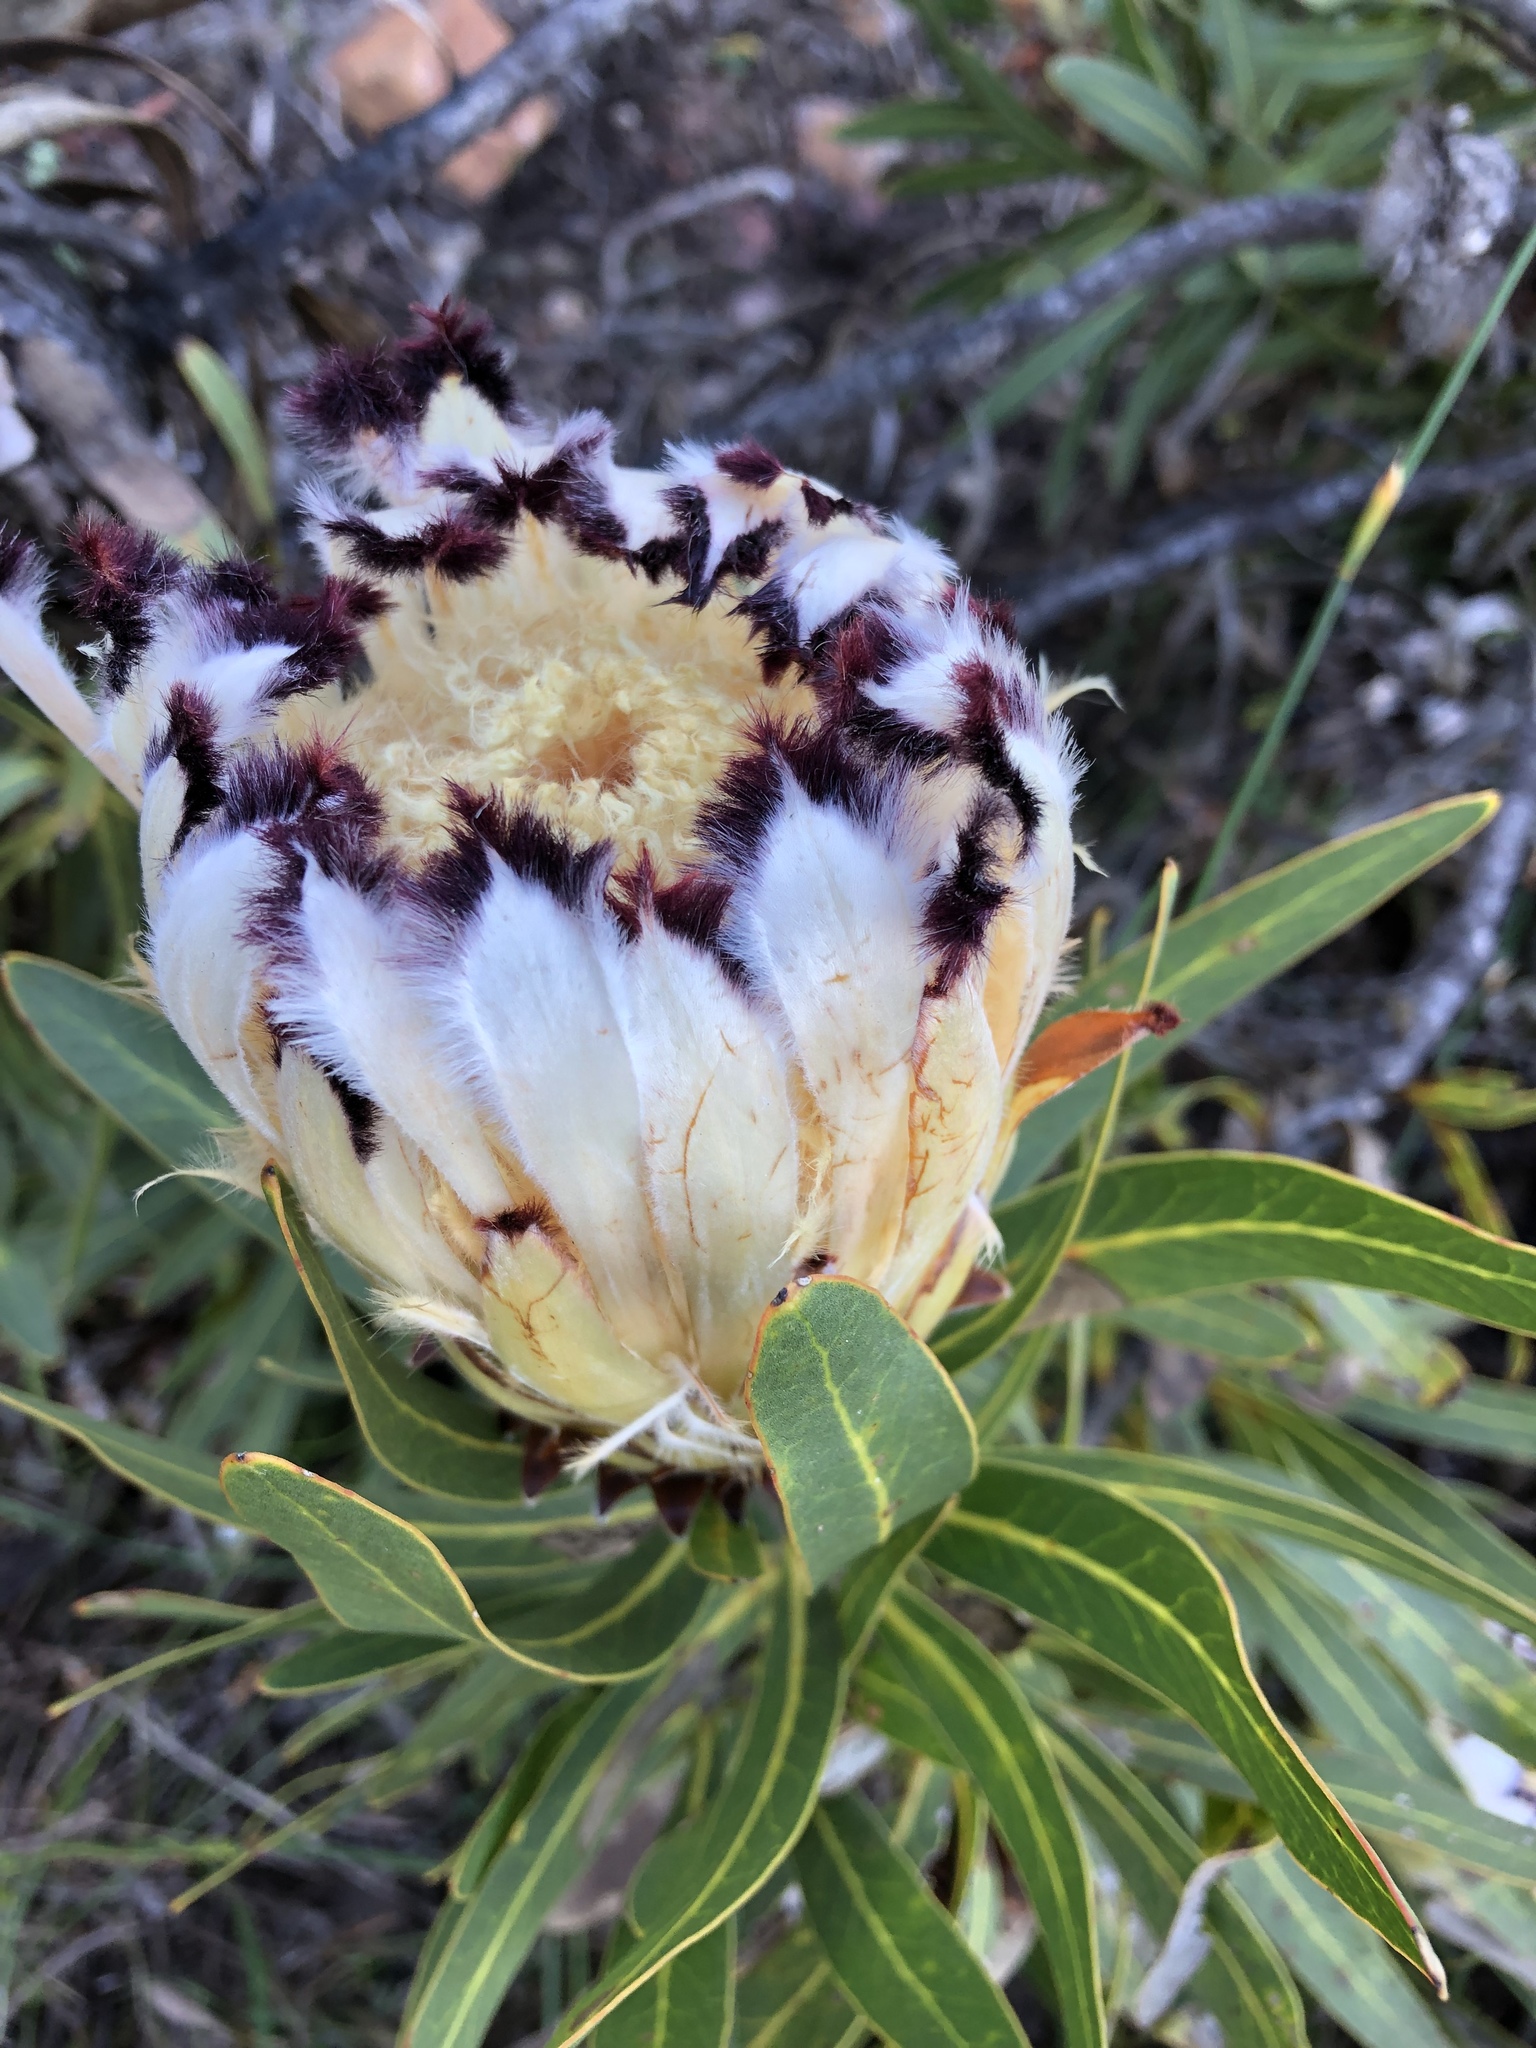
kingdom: Plantae
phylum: Tracheophyta
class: Magnoliopsida
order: Proteales
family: Proteaceae
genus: Protea
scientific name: Protea neriifolia
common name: Blue sugarbush
